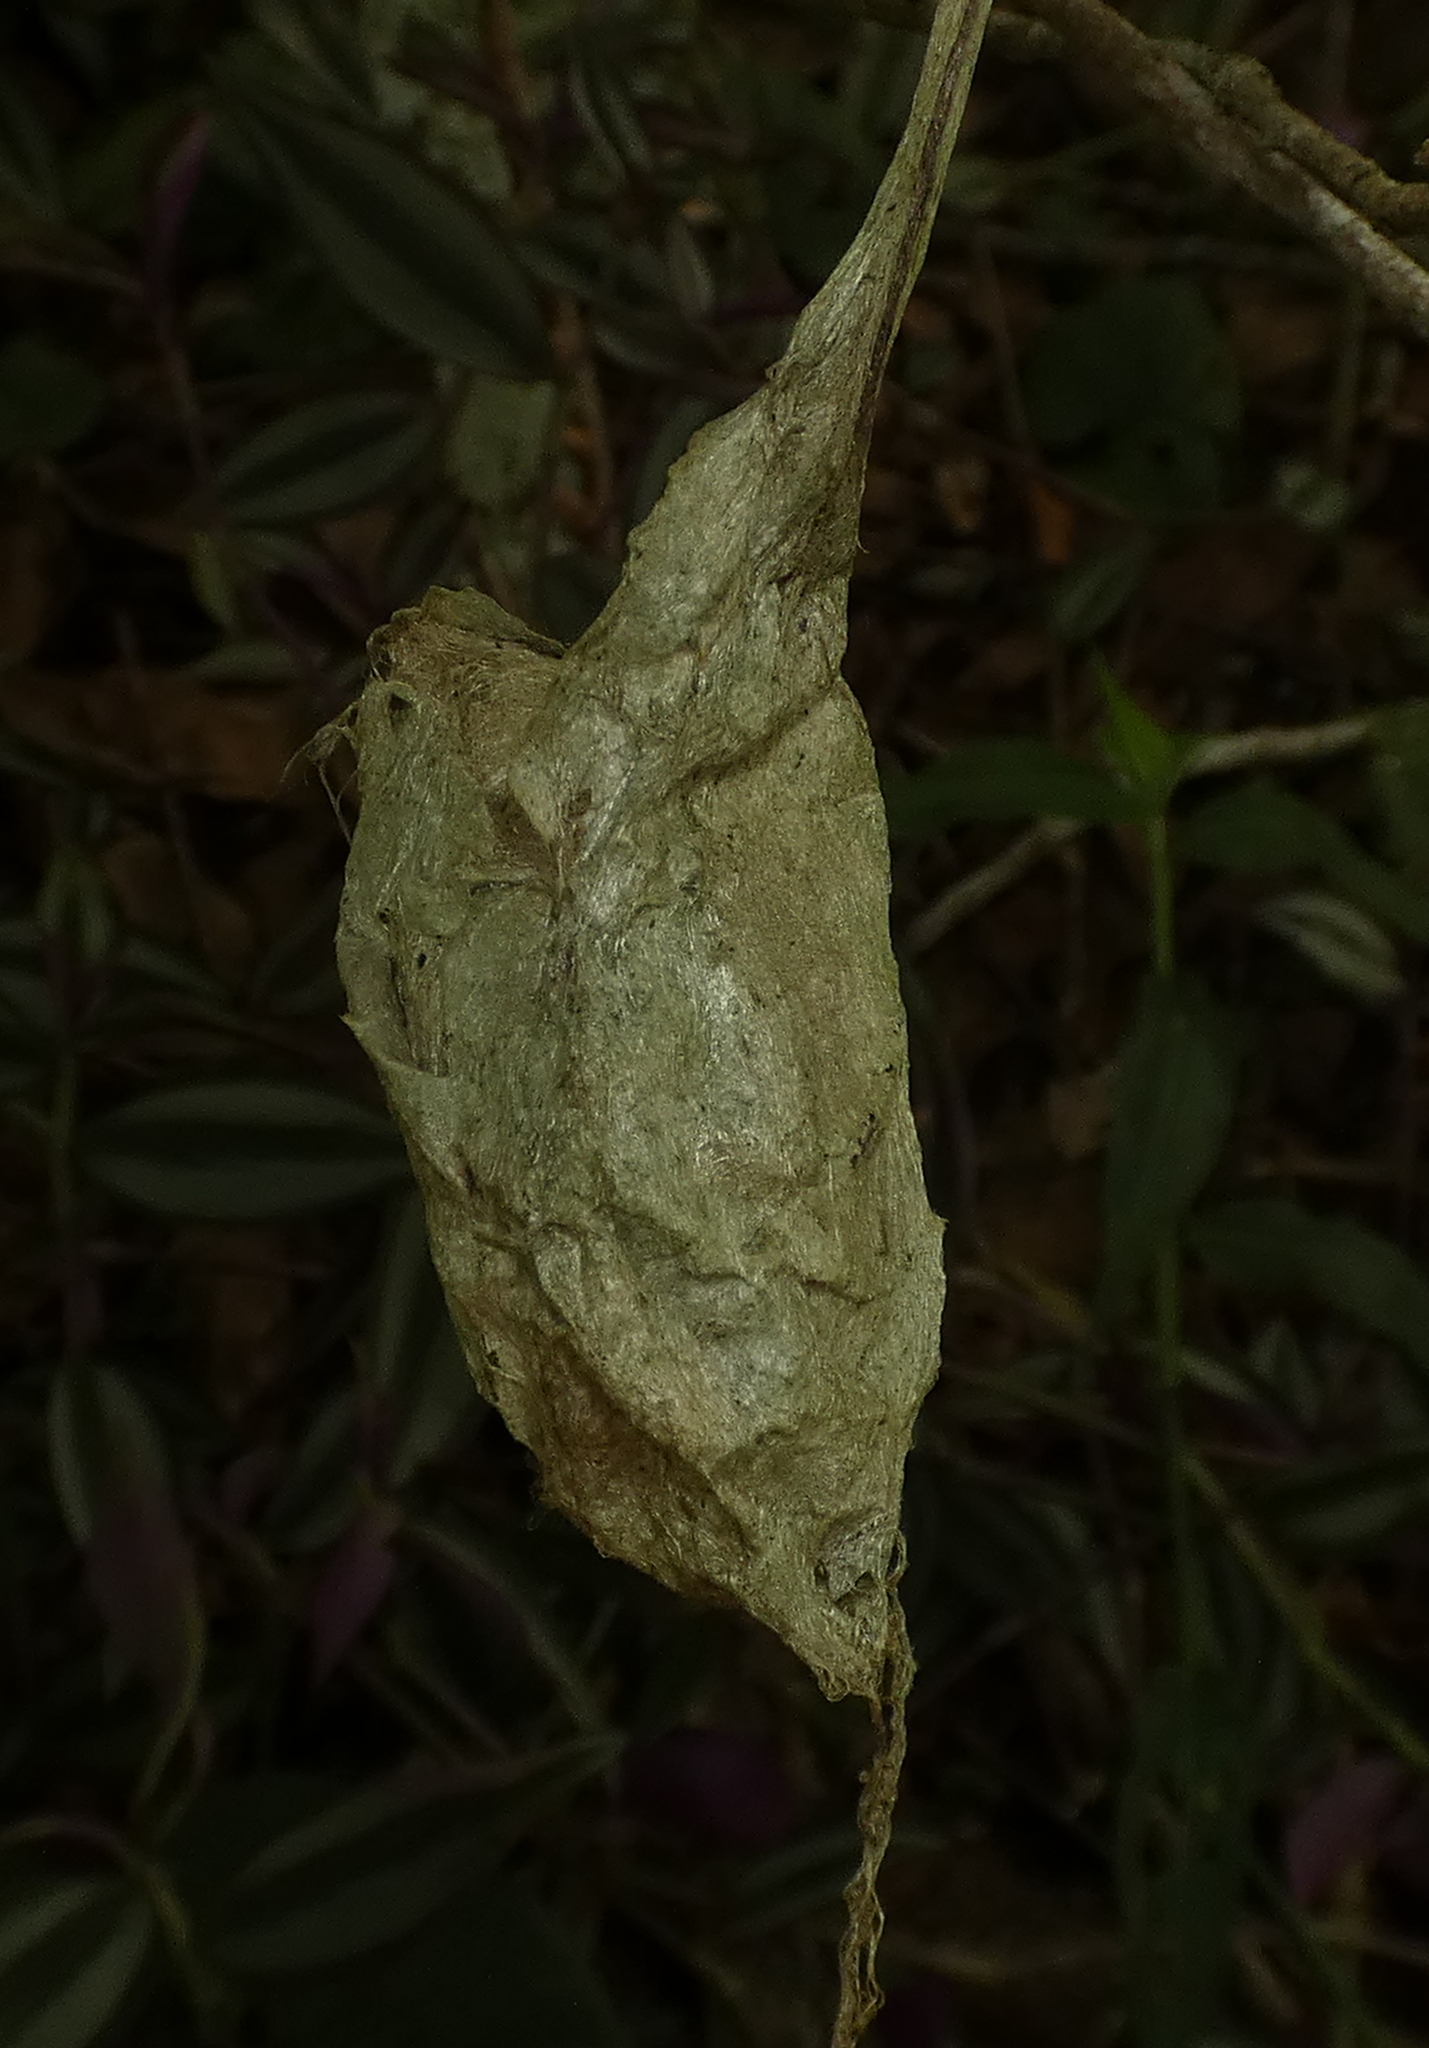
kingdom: Animalia
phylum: Arthropoda
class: Insecta
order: Lepidoptera
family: Saturniidae
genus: Rothschildia
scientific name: Rothschildia speculifer
